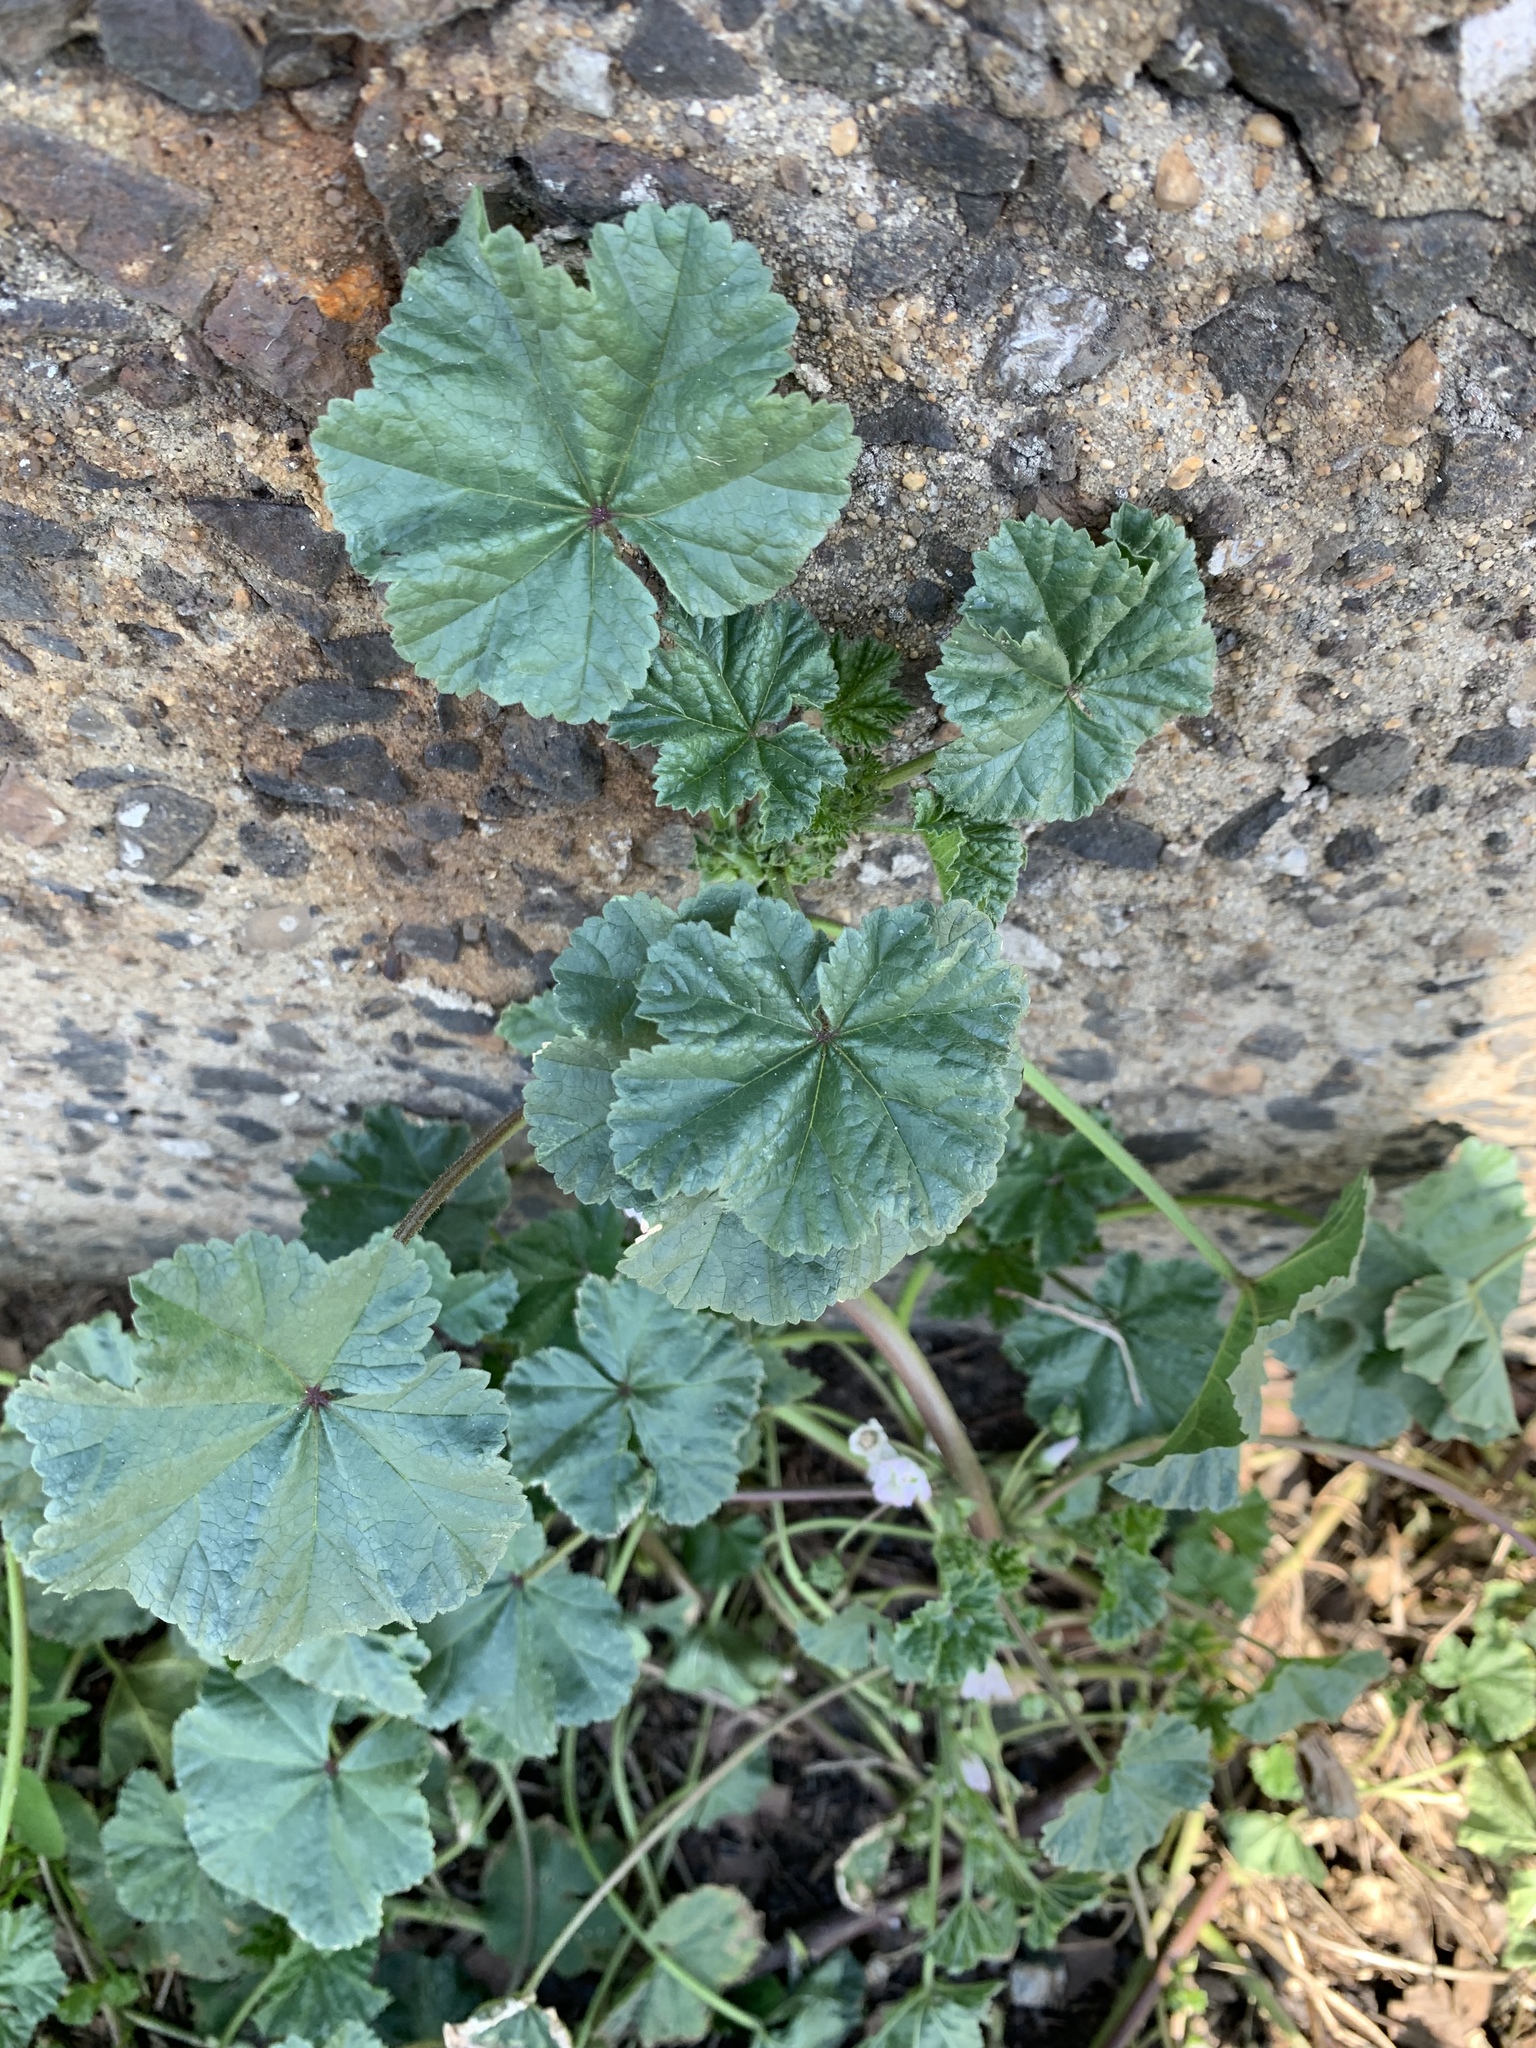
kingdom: Plantae
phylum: Tracheophyta
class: Magnoliopsida
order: Malvales
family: Malvaceae
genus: Malva
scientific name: Malva neglecta
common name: Common mallow
